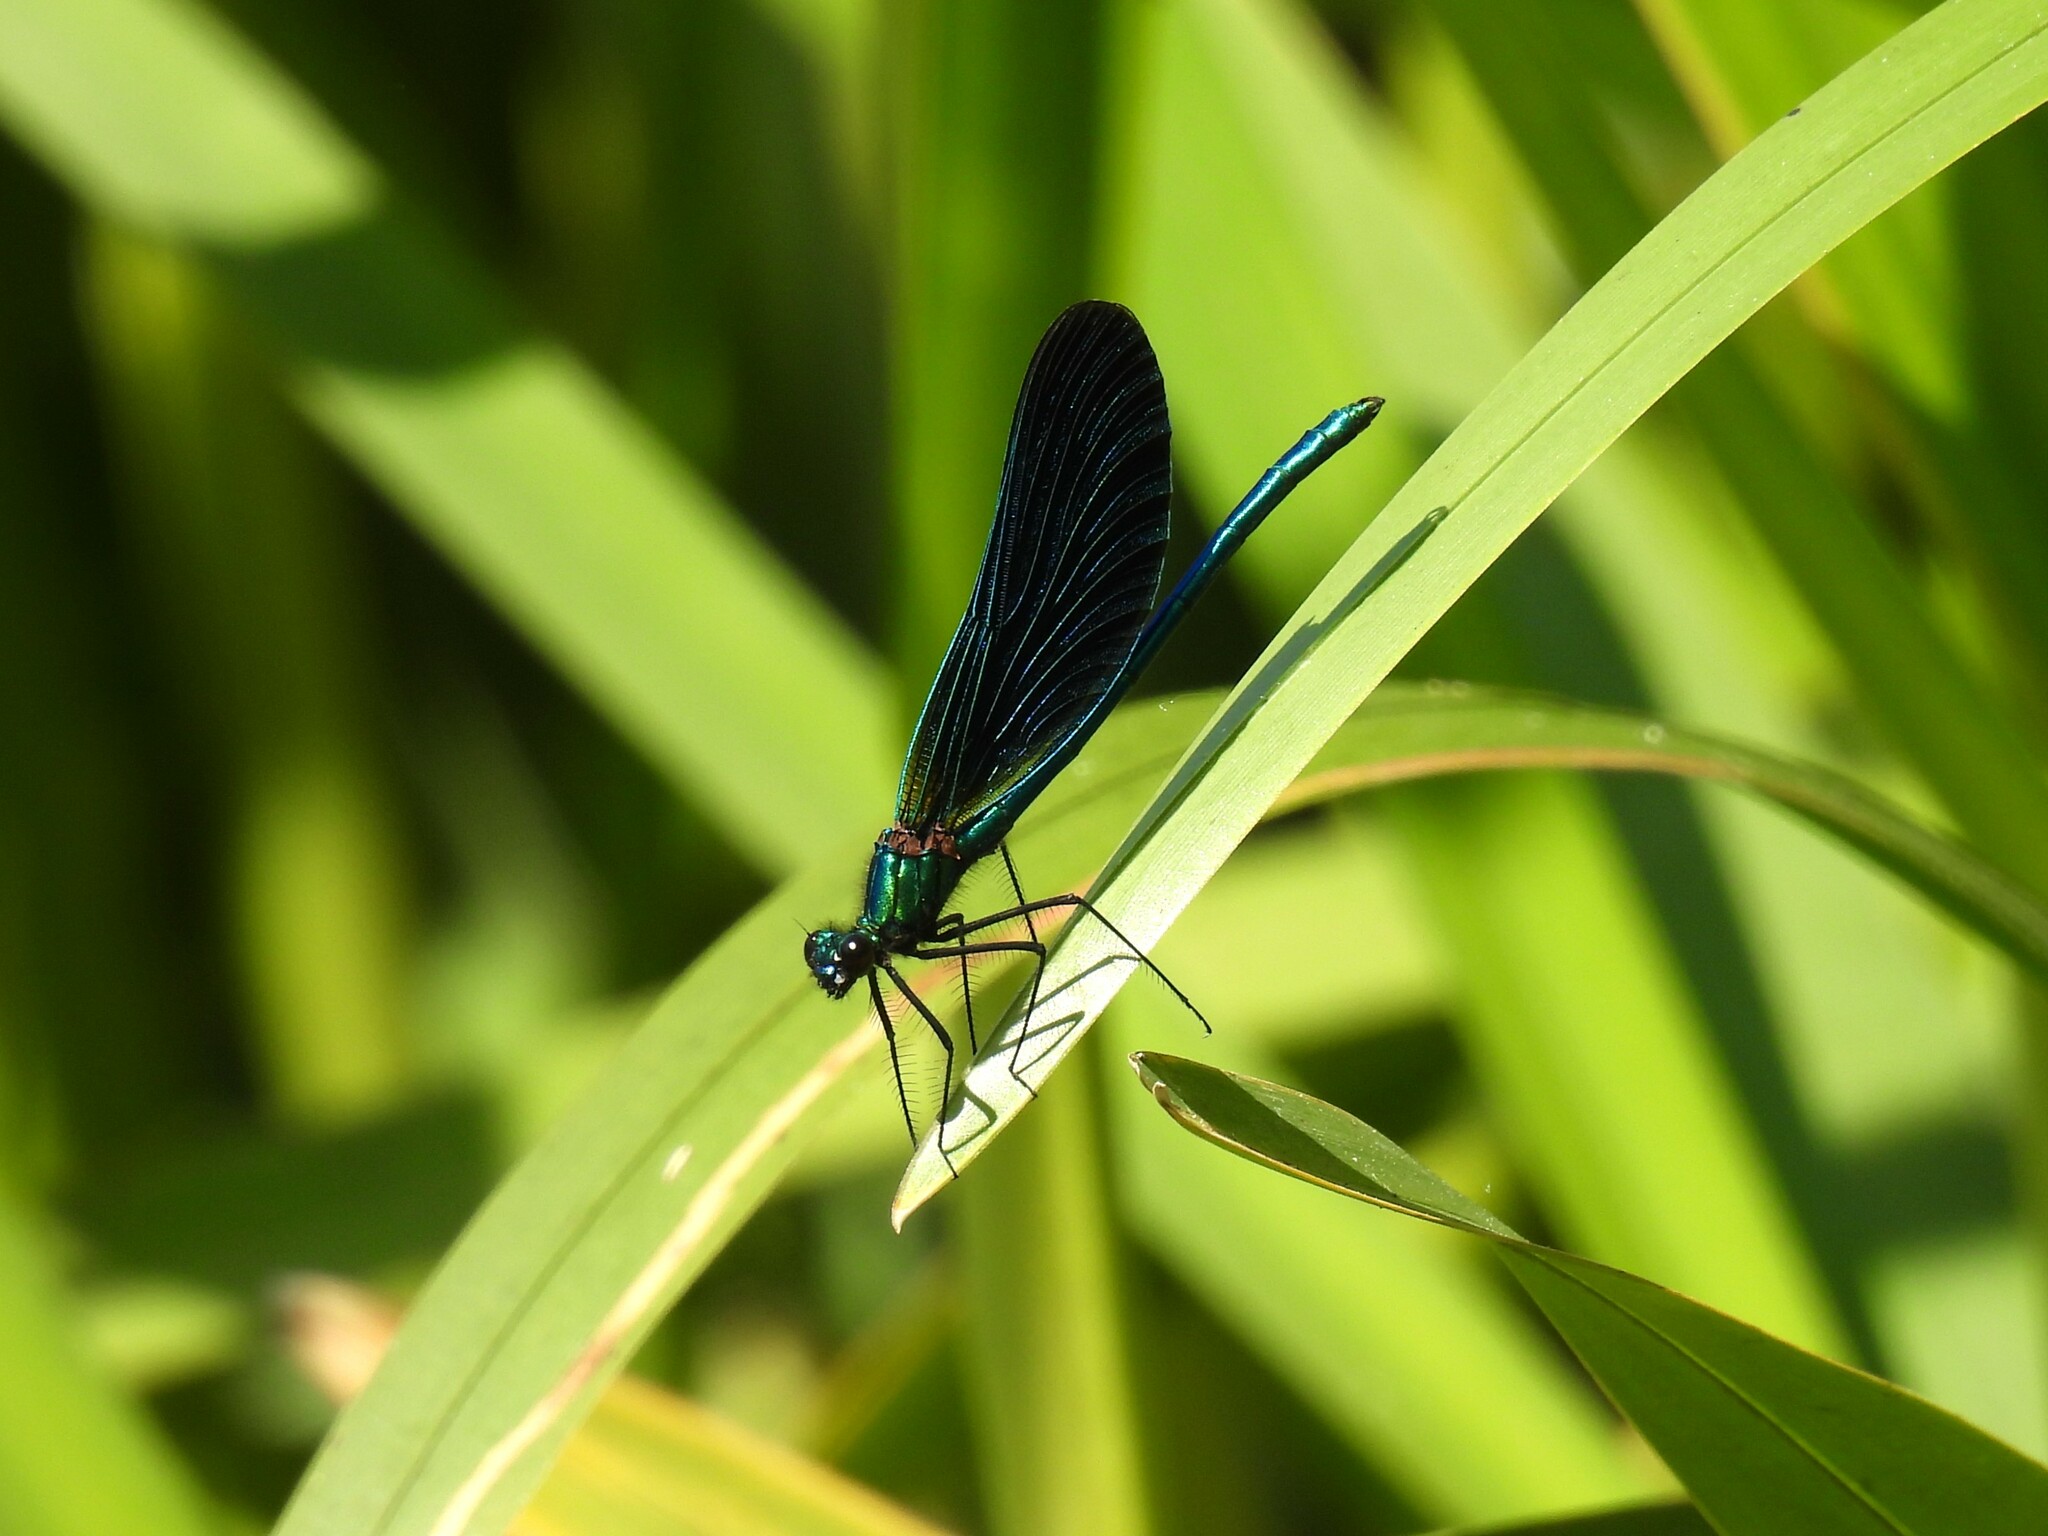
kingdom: Animalia
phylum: Arthropoda
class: Insecta
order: Odonata
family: Calopterygidae
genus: Calopteryx
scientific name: Calopteryx virgo
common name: Beautiful demoiselle
